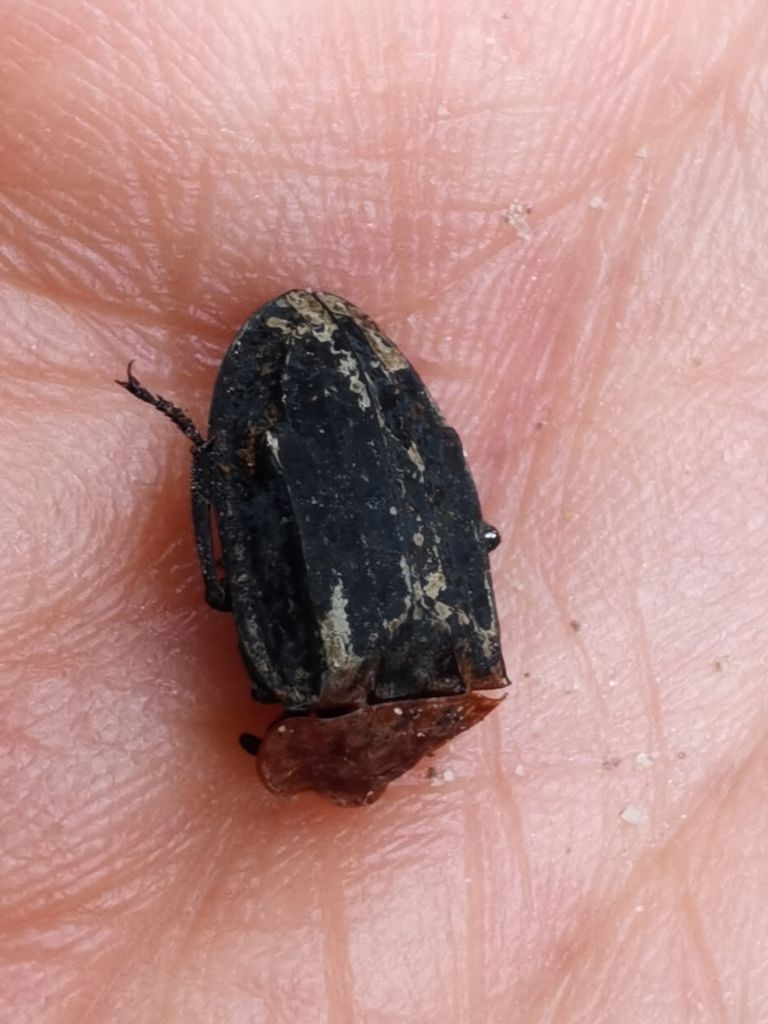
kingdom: Animalia
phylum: Arthropoda
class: Insecta
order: Coleoptera
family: Staphylinidae
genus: Oiceoptoma
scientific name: Oiceoptoma thoracicum
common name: Red-breasted carrion beetle
